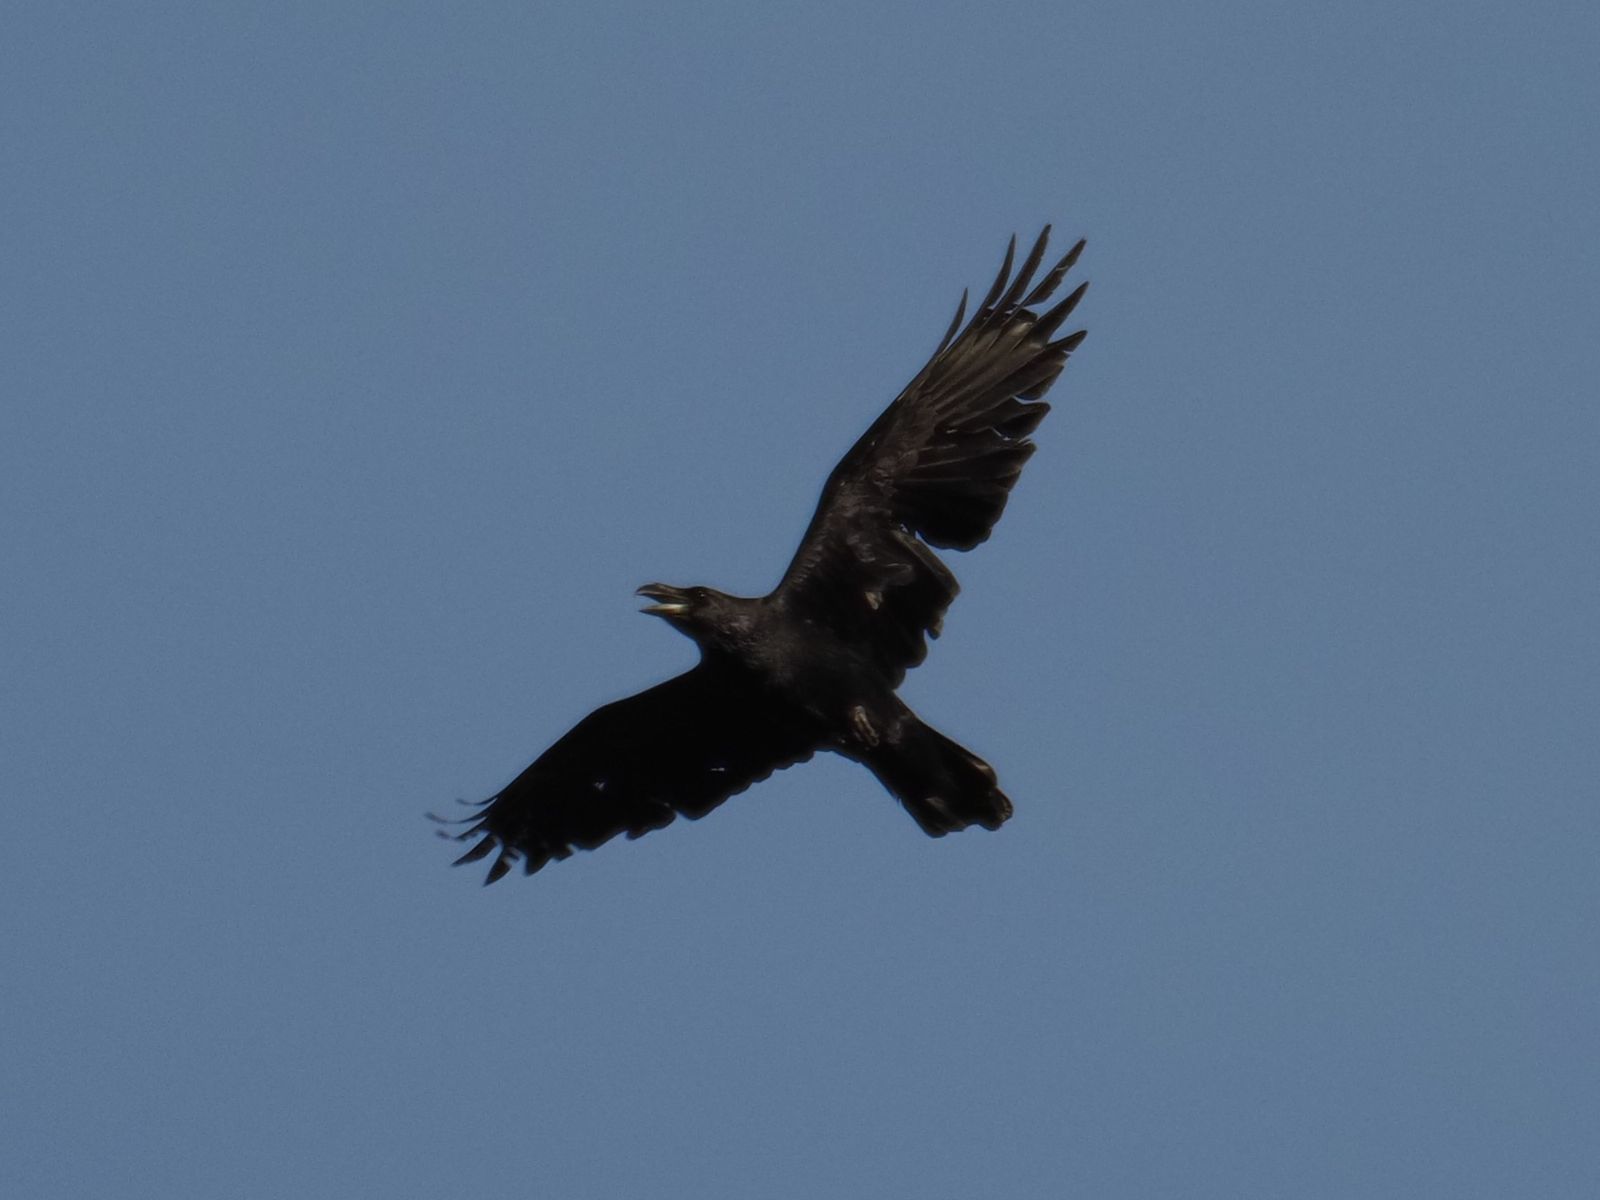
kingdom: Animalia
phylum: Chordata
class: Aves
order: Passeriformes
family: Corvidae
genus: Corvus
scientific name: Corvus corax
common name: Common raven
